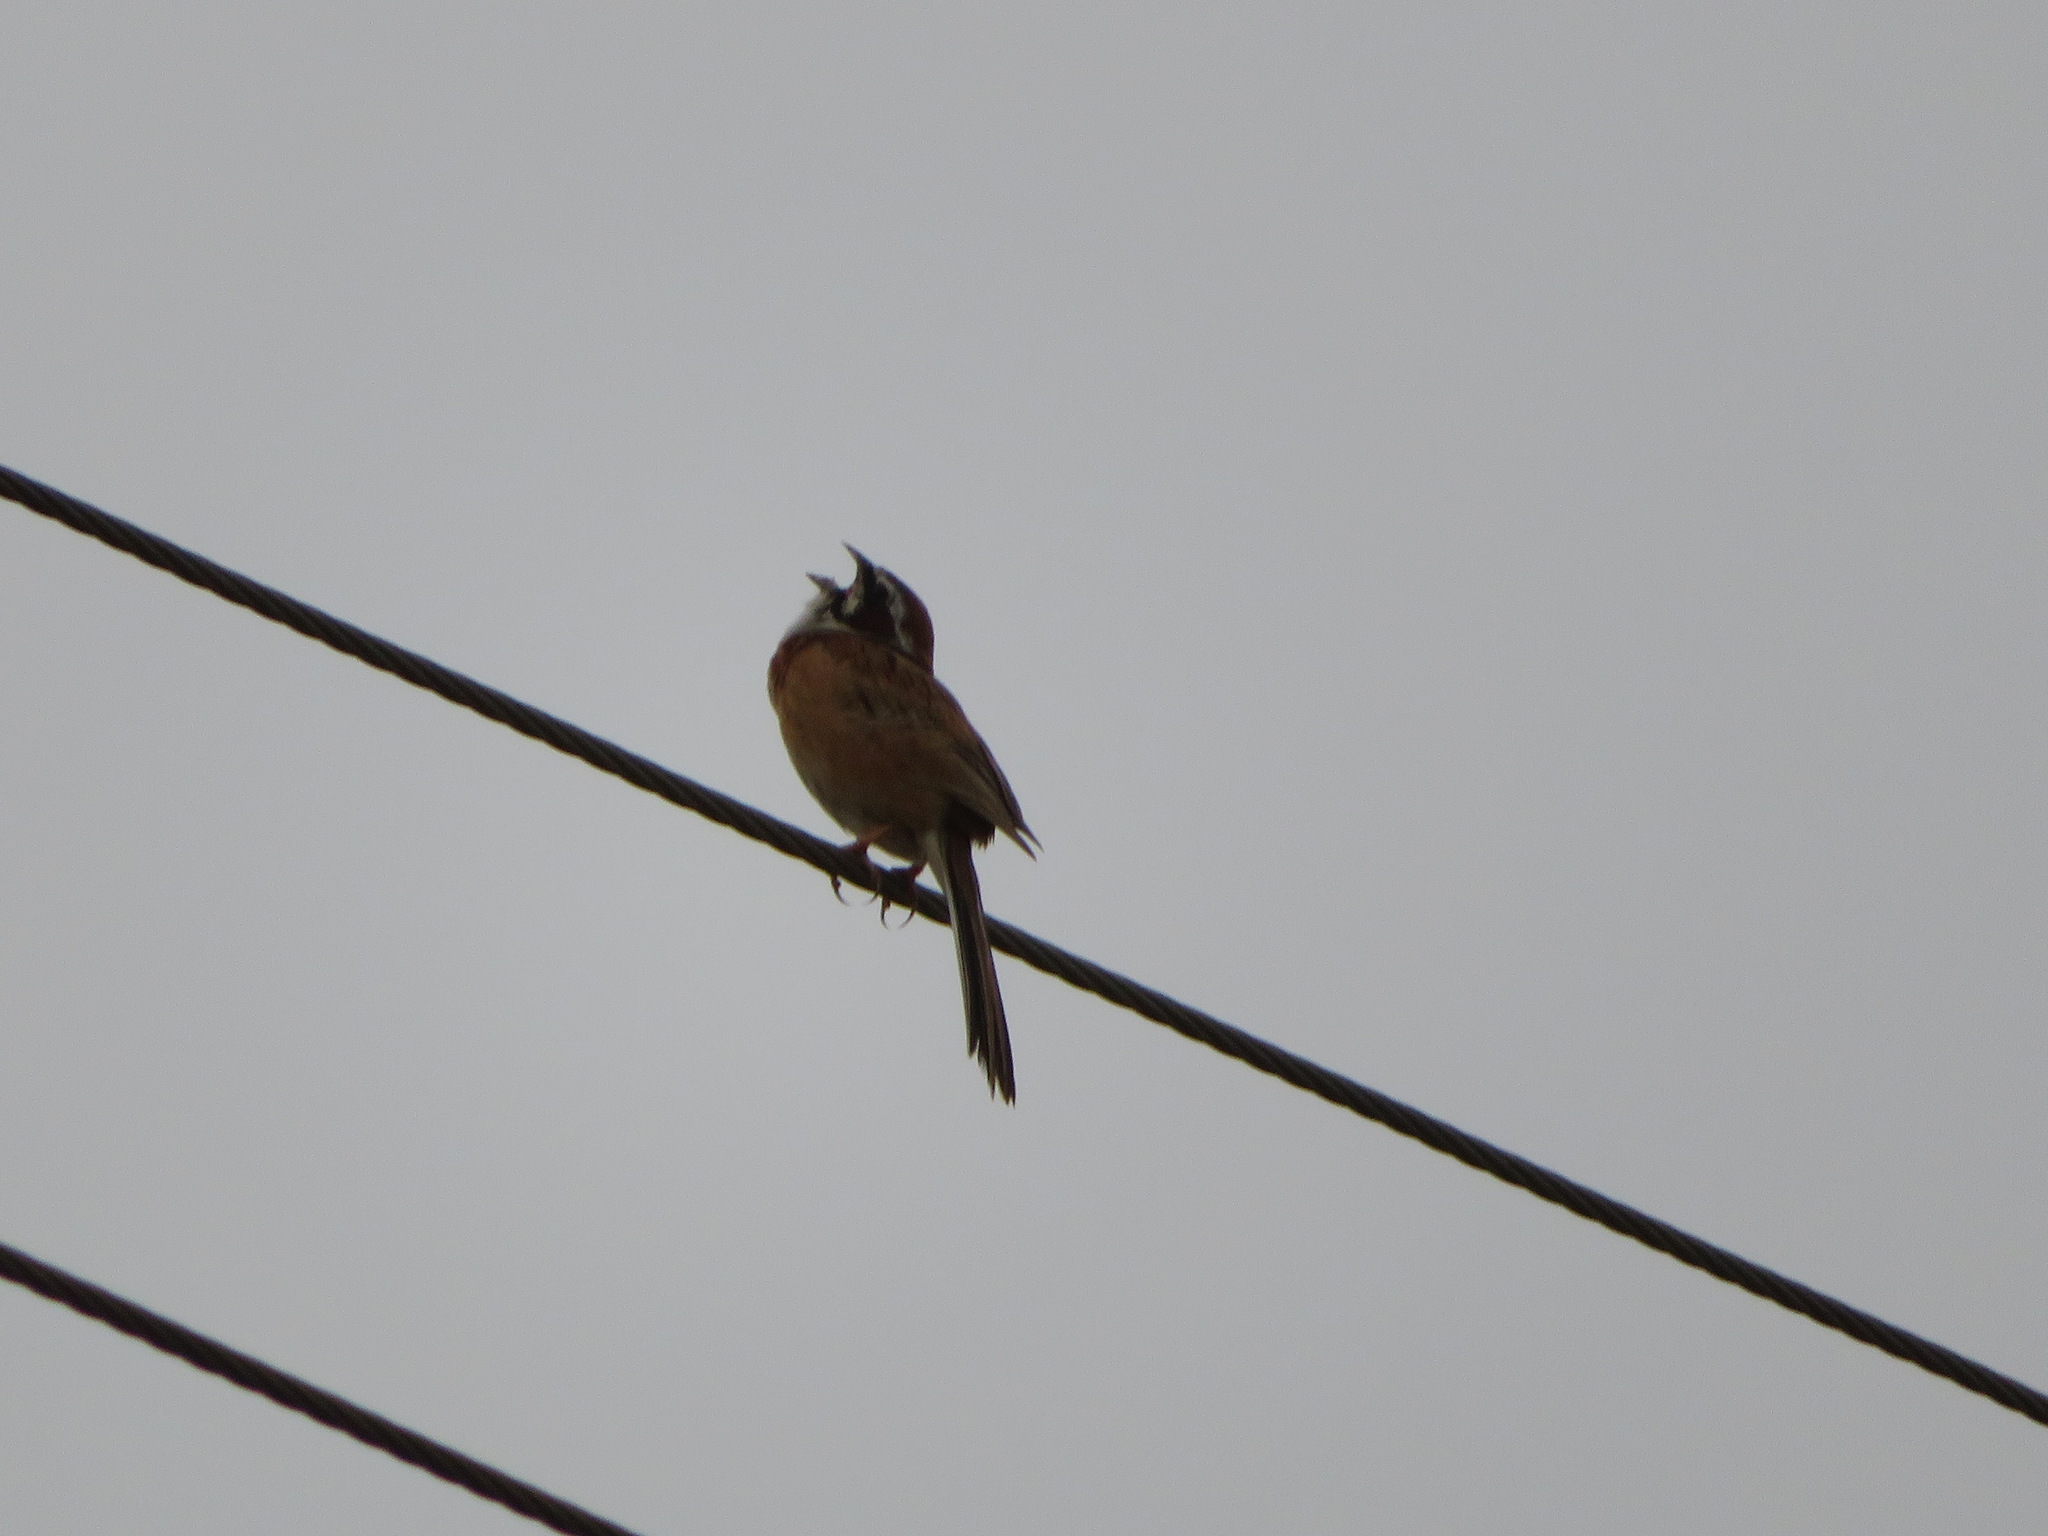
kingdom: Animalia
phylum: Chordata
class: Aves
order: Passeriformes
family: Emberizidae
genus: Emberiza
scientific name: Emberiza cioides
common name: Meadow bunting
